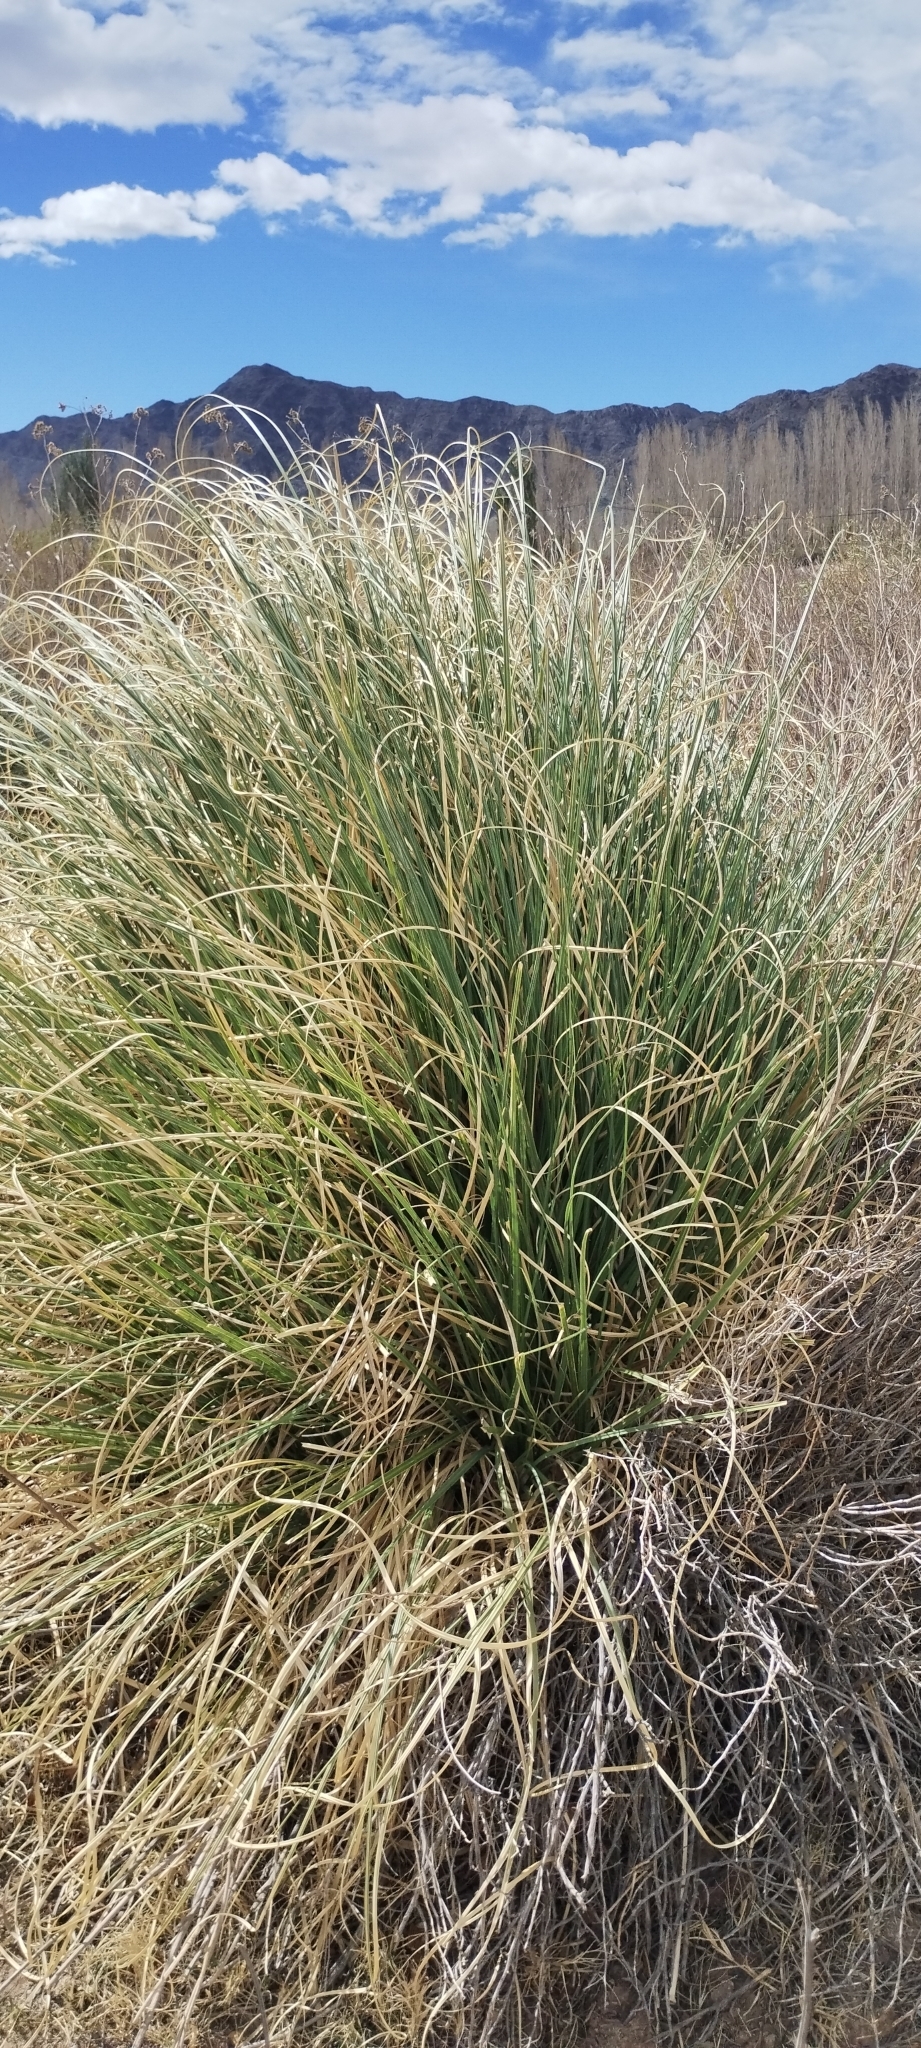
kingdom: Plantae
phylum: Tracheophyta
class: Liliopsida
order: Poales
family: Poaceae
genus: Cortaderia
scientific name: Cortaderia selloana
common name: Uruguayan pampas grass
